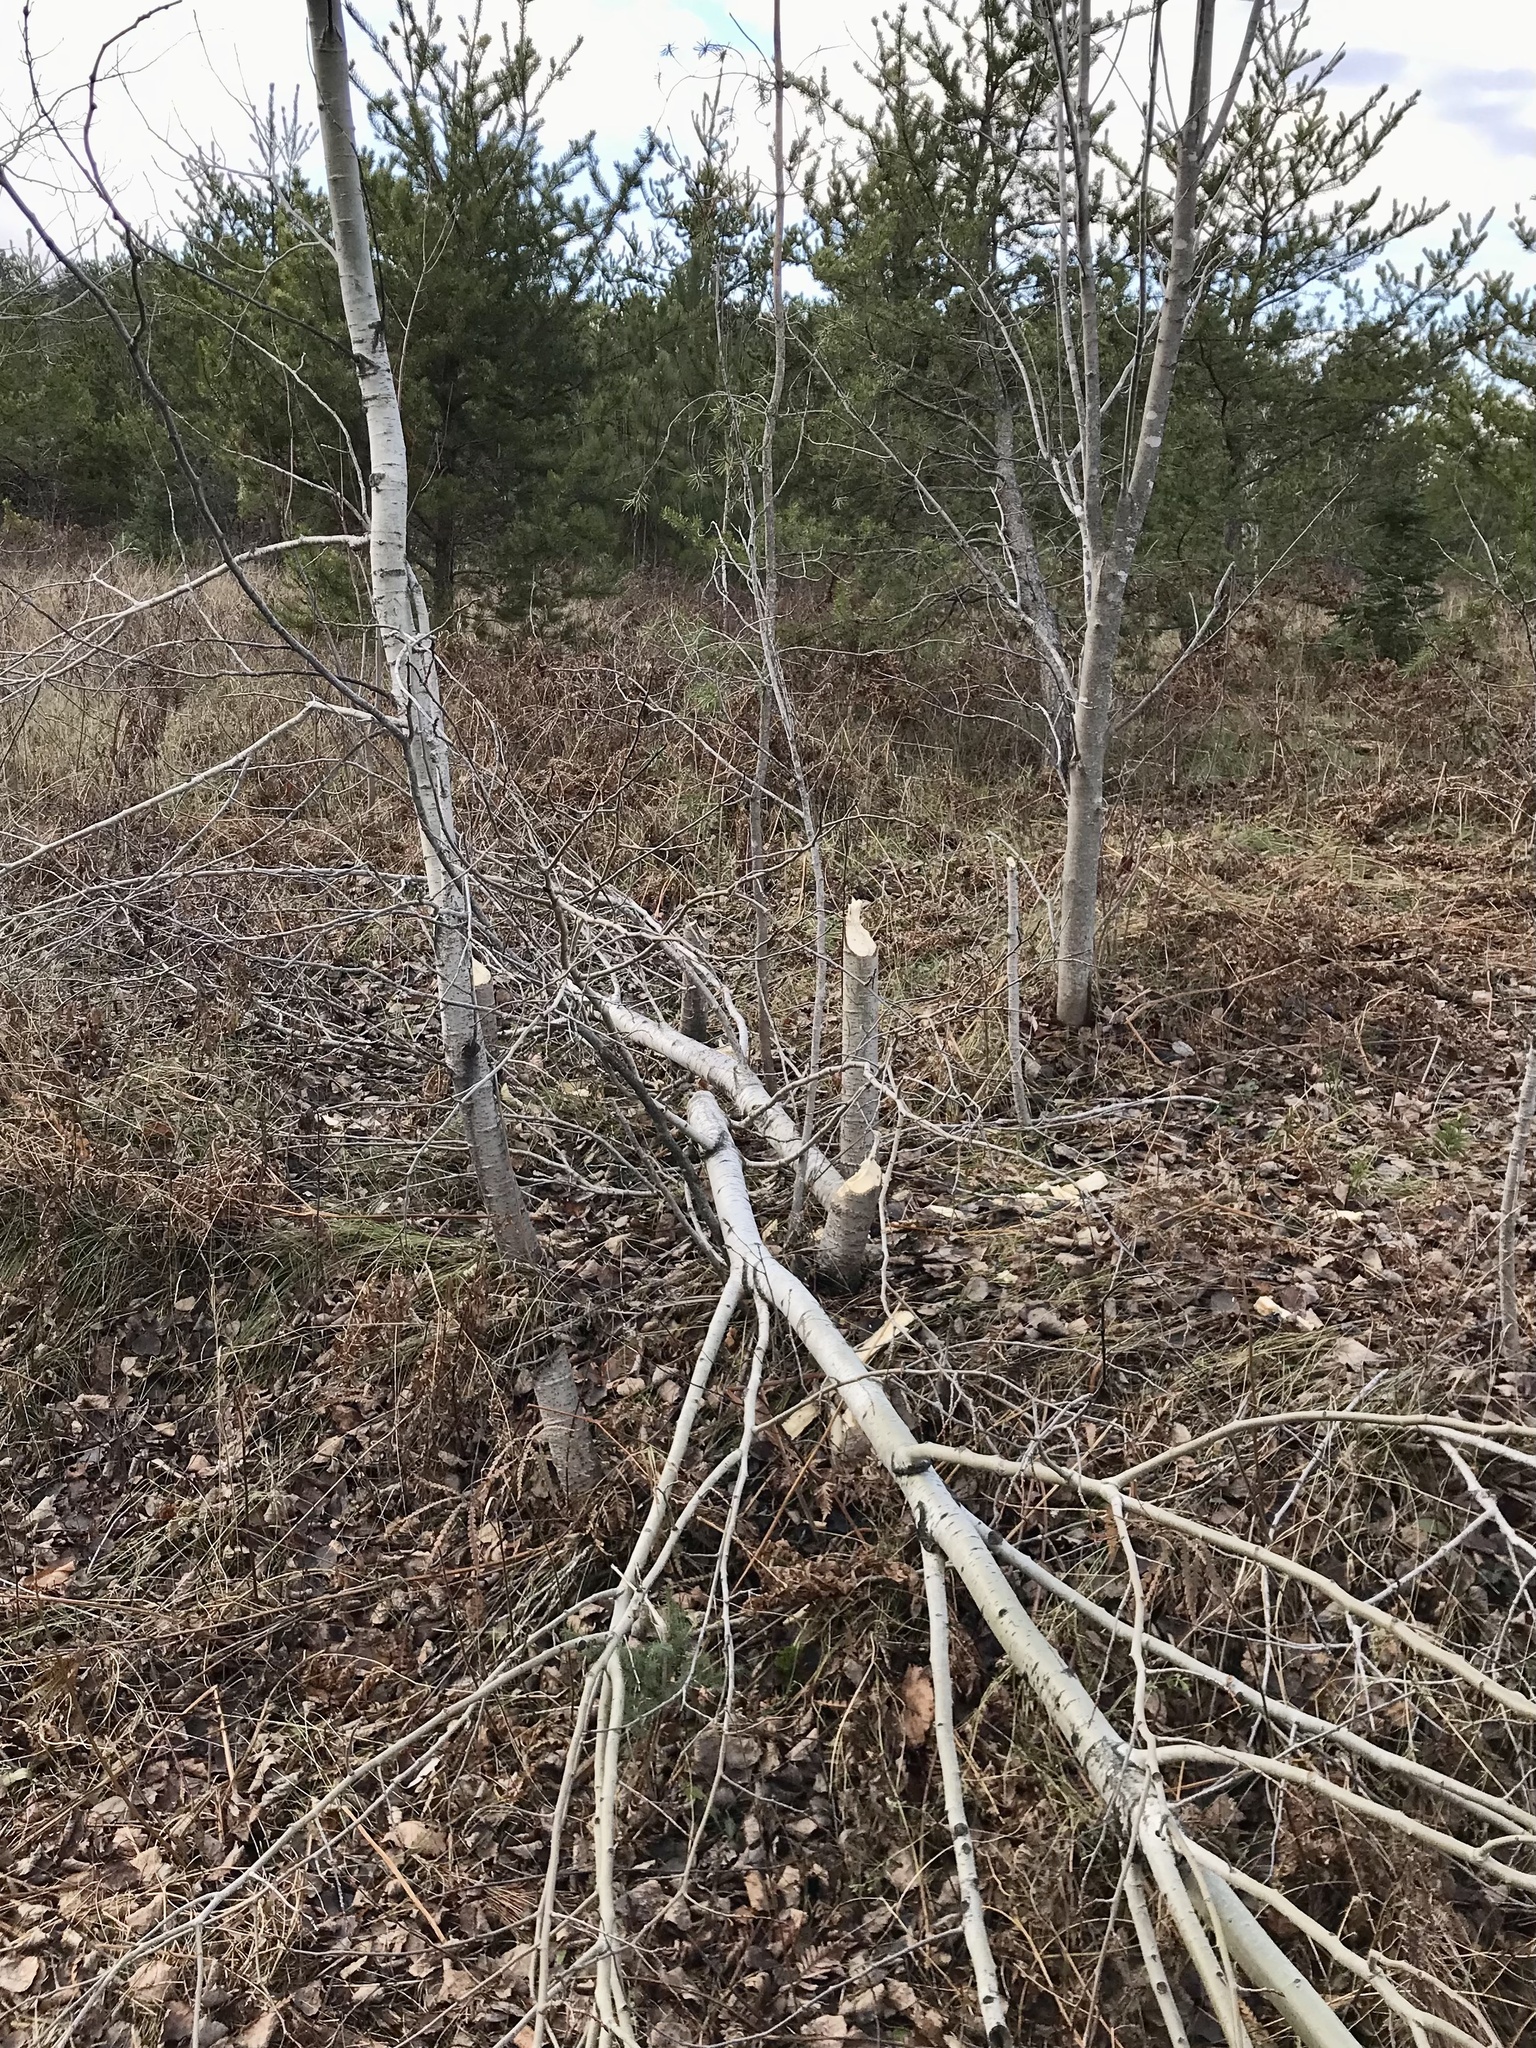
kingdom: Animalia
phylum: Chordata
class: Mammalia
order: Rodentia
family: Castoridae
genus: Castor
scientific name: Castor canadensis
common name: American beaver
